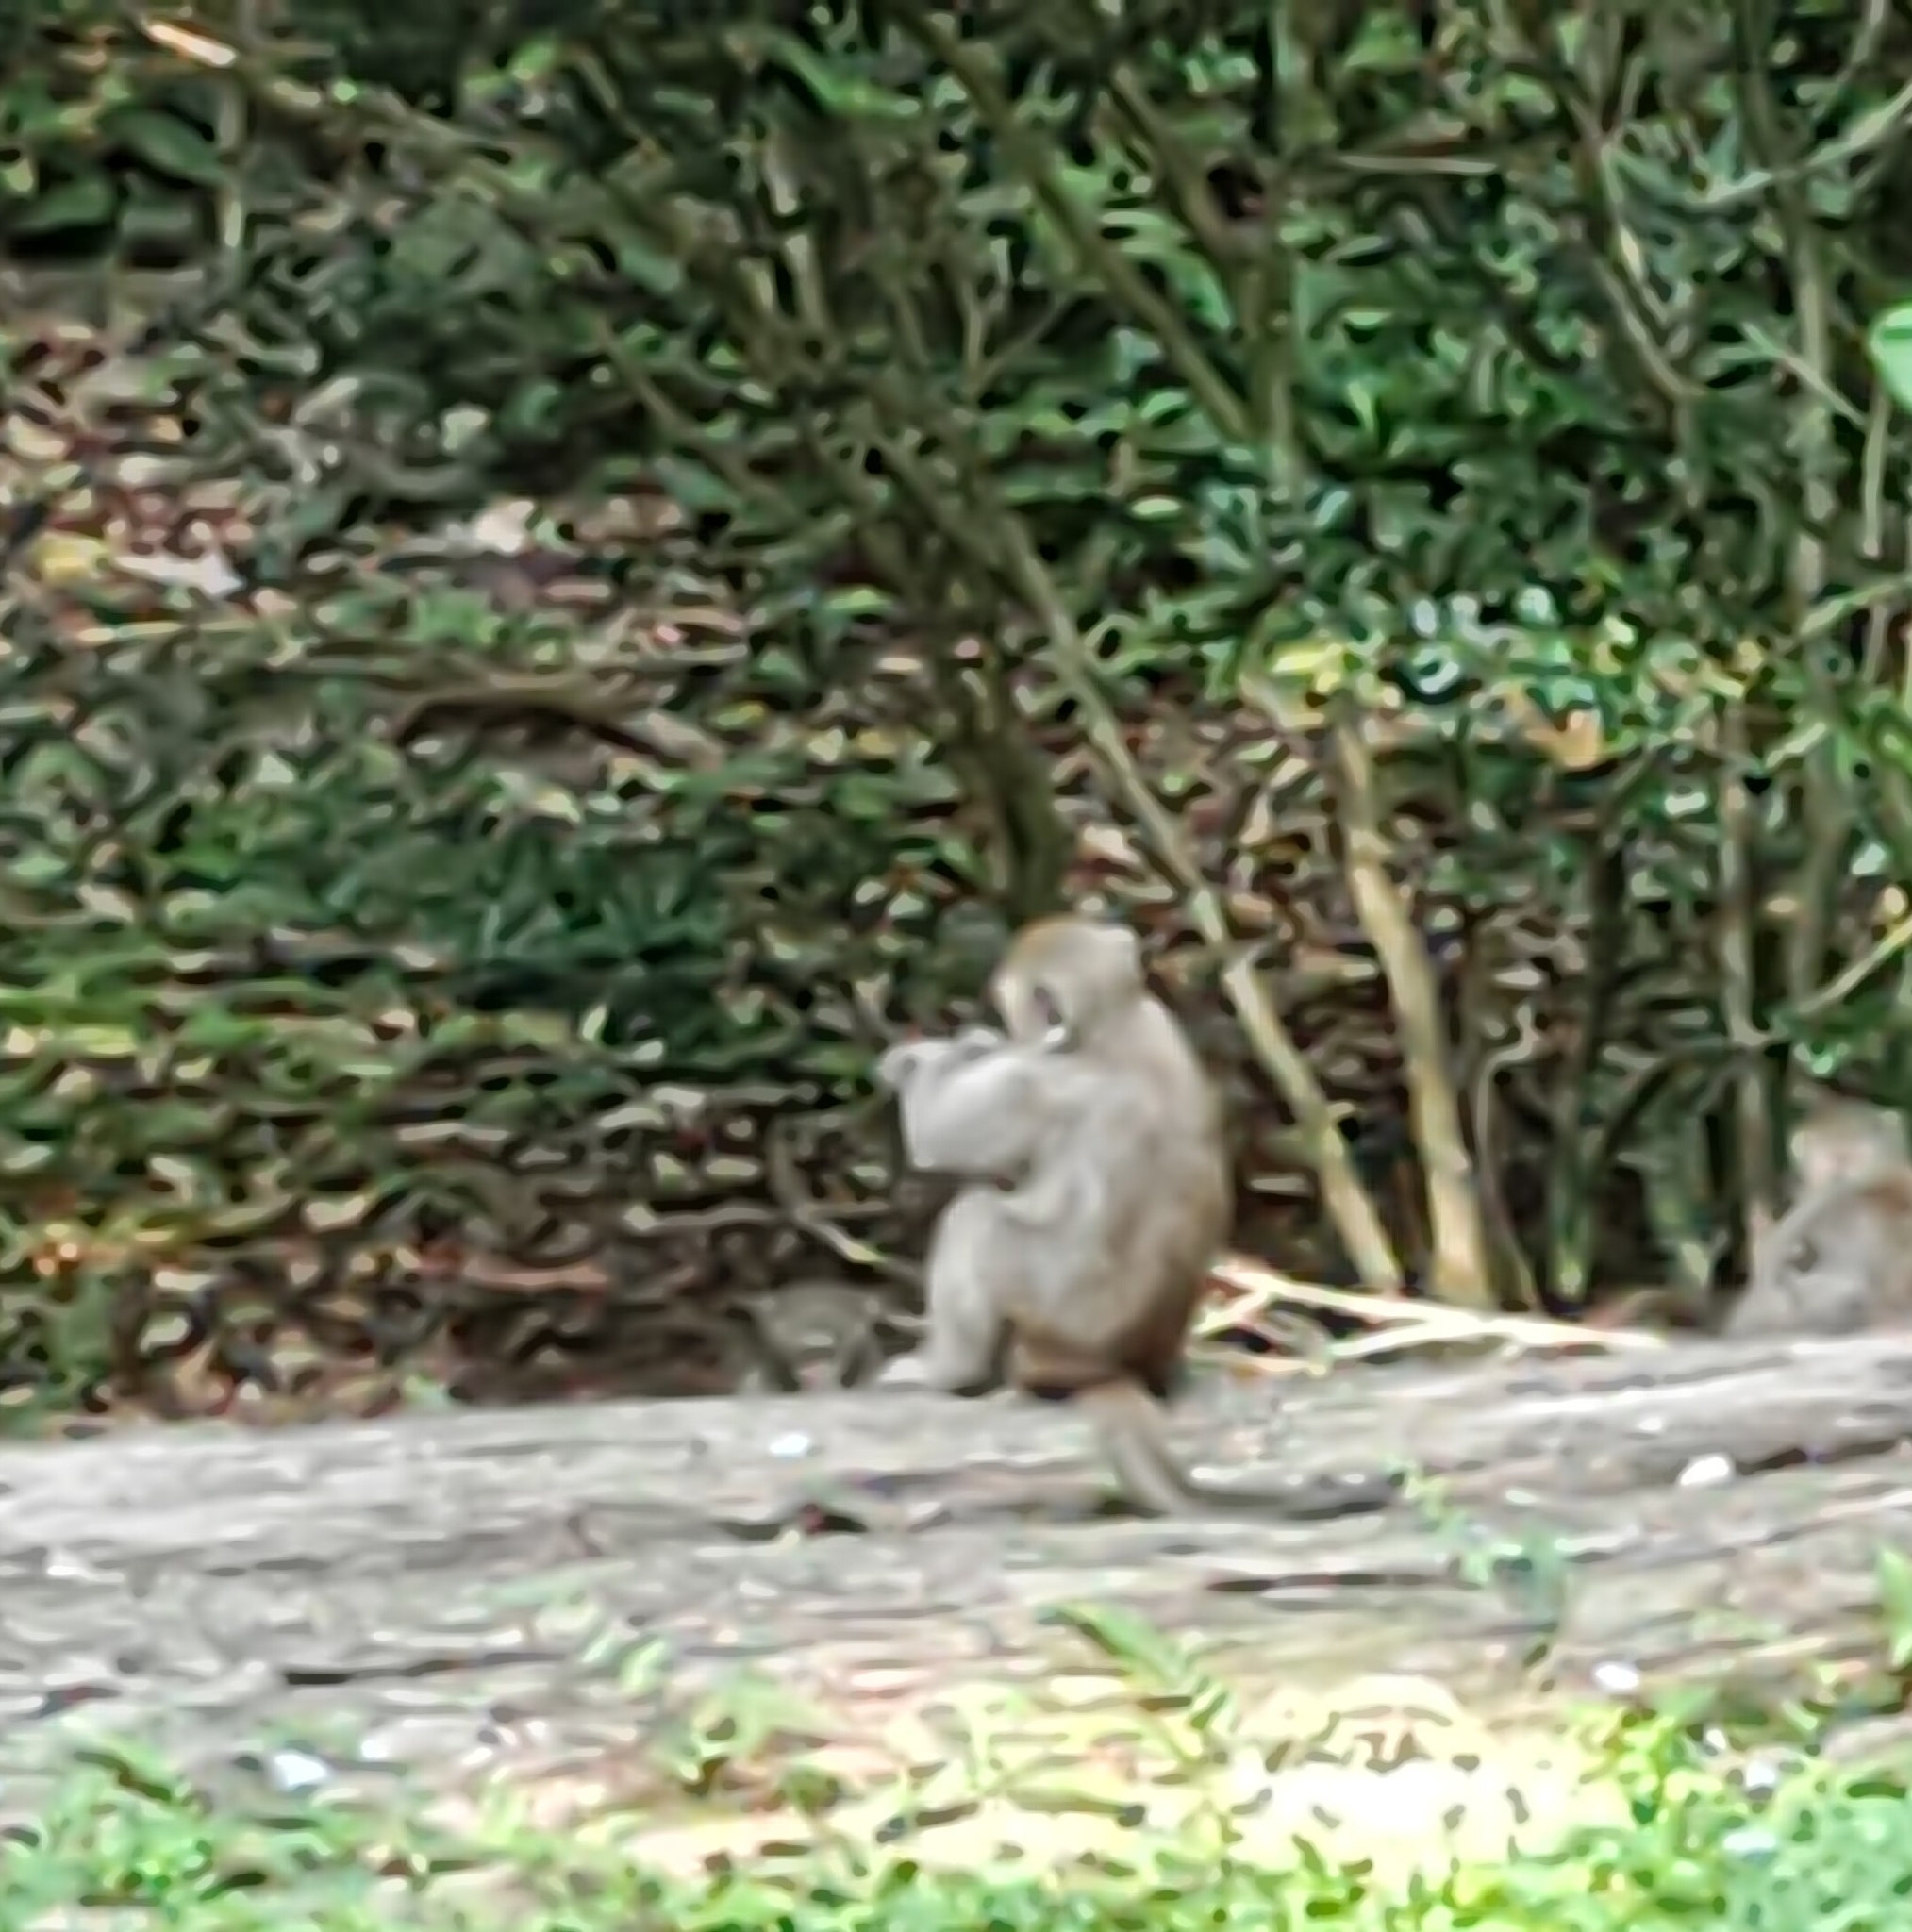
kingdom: Animalia
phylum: Chordata
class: Mammalia
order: Primates
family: Cercopithecidae
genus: Macaca
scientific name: Macaca cyclopis
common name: Formosan rock macaque
